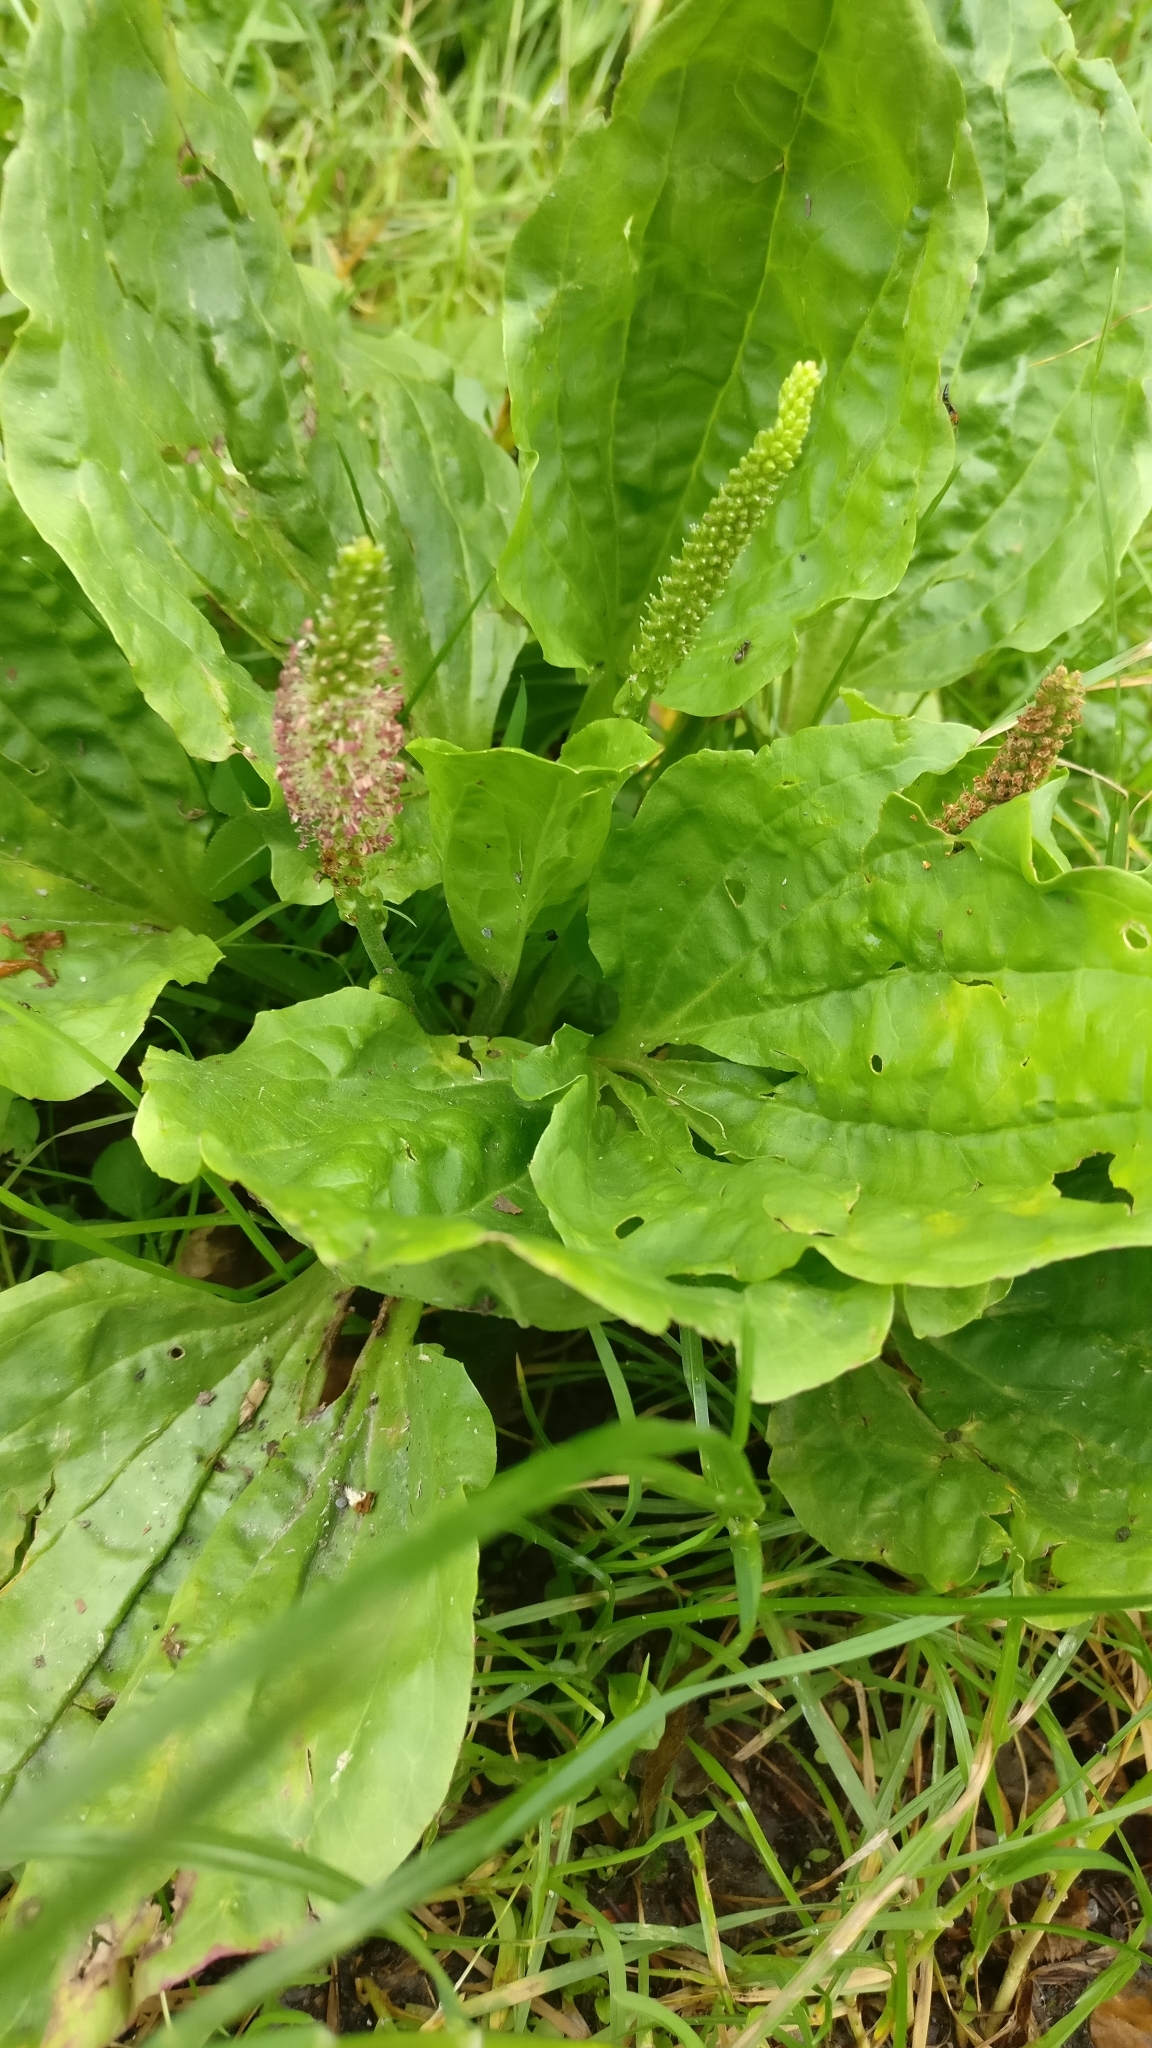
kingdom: Plantae
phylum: Tracheophyta
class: Magnoliopsida
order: Lamiales
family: Plantaginaceae
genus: Plantago
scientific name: Plantago major
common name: Common plantain
